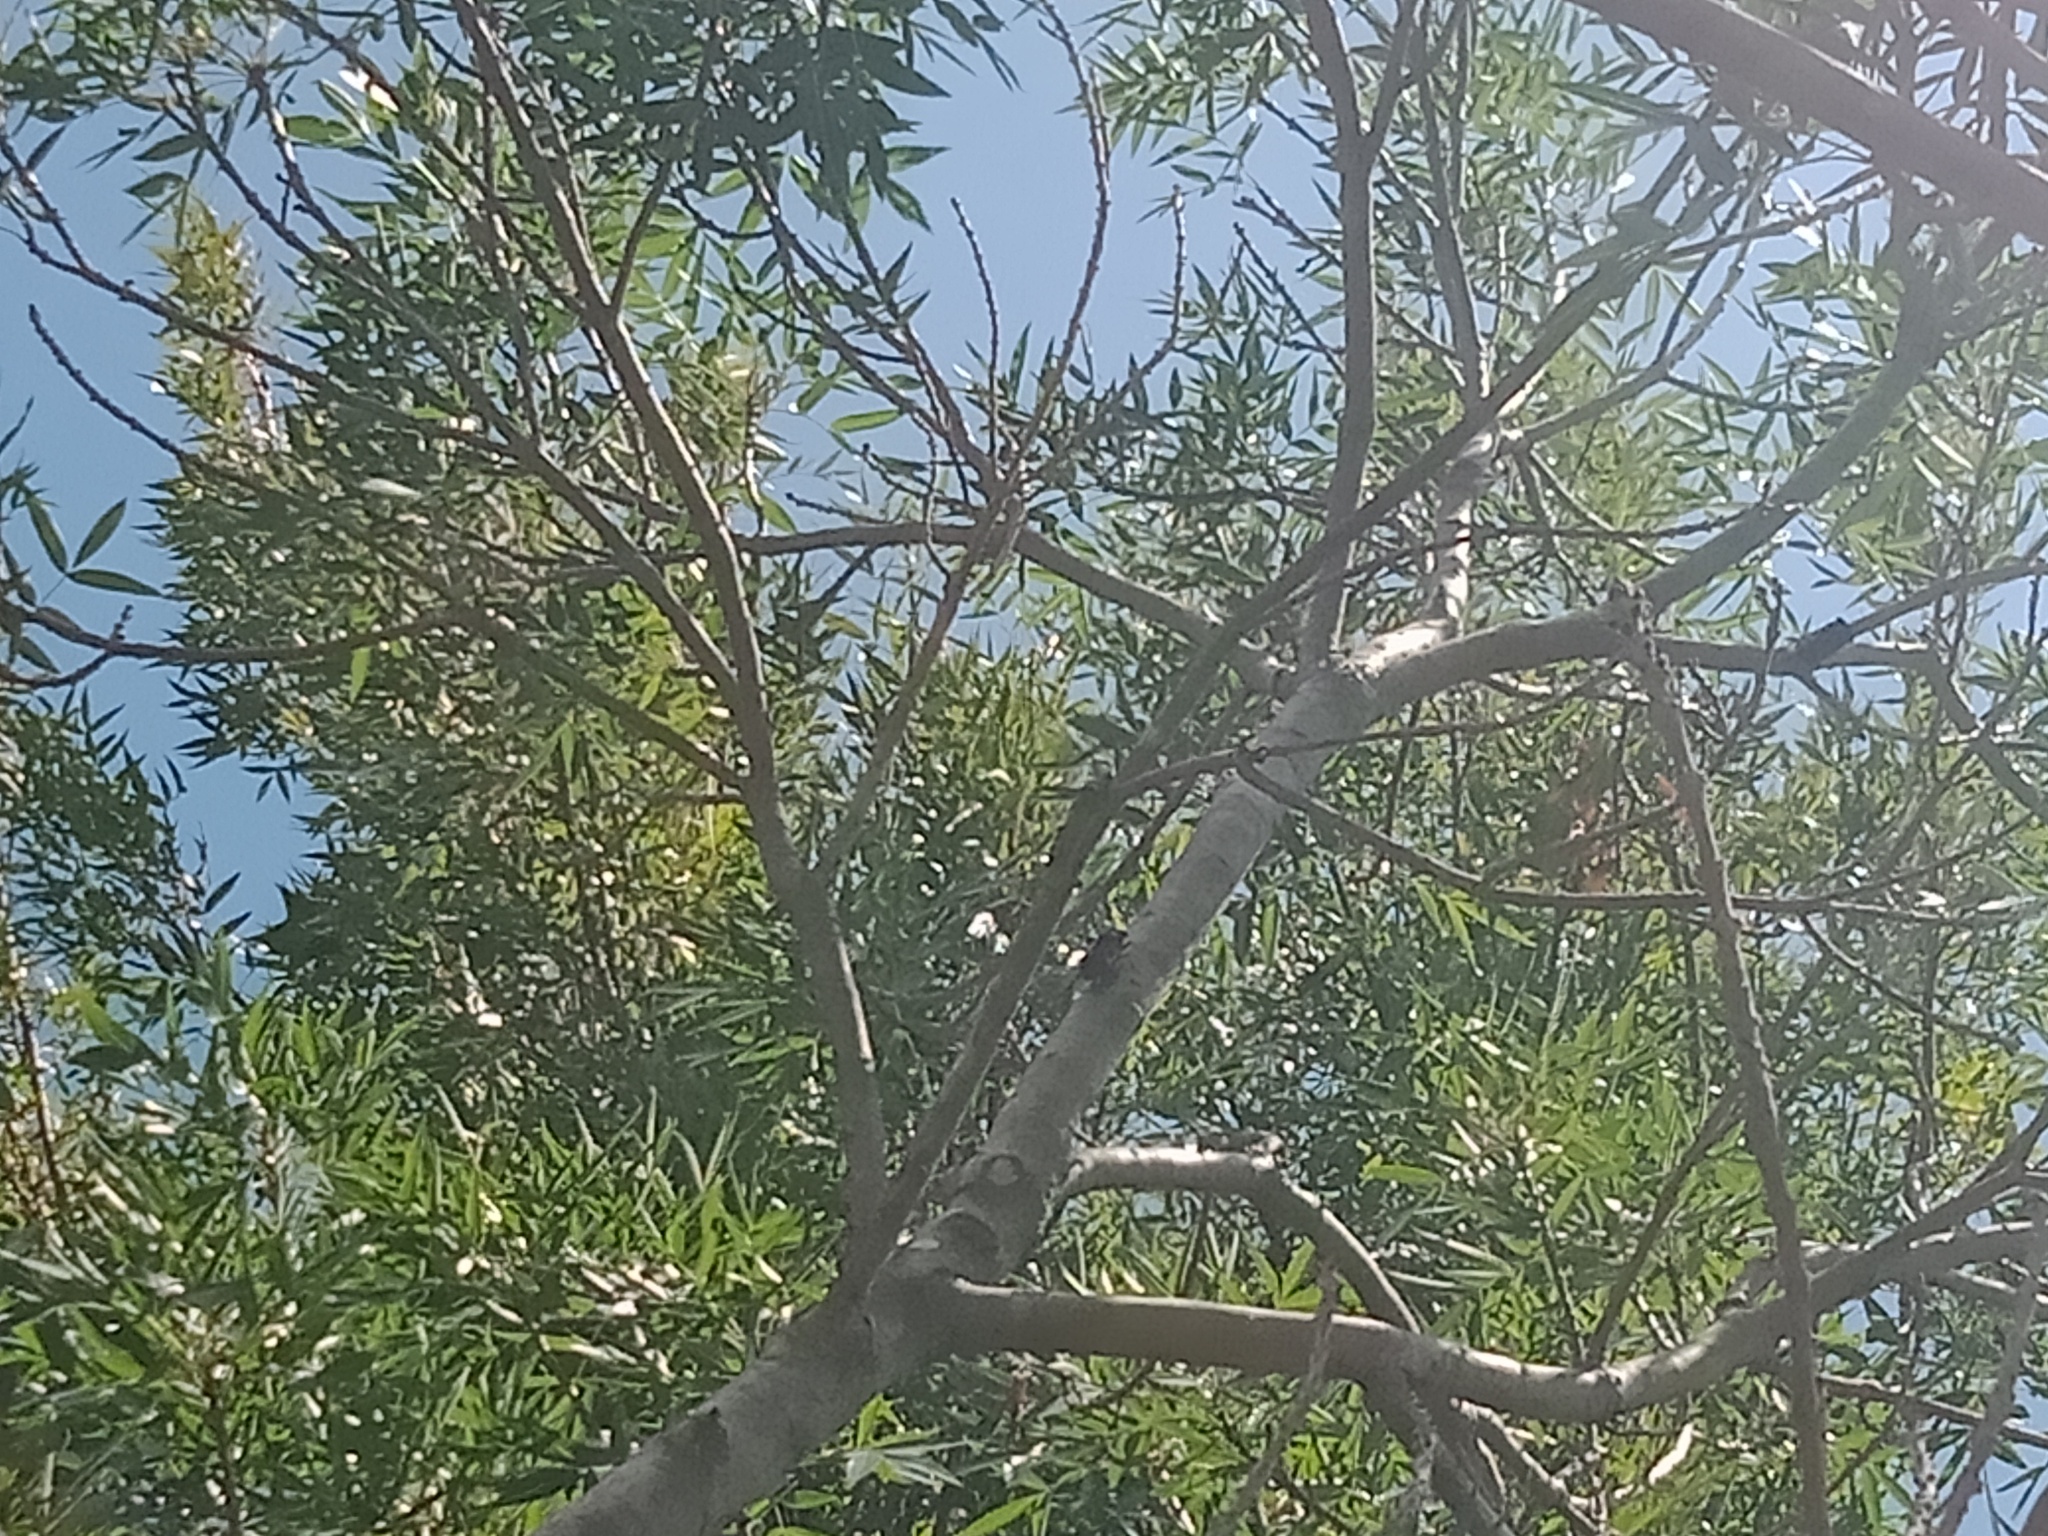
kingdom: Animalia
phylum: Arthropoda
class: Insecta
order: Hemiptera
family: Cicadidae
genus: Psaltoda
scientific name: Psaltoda plaga
